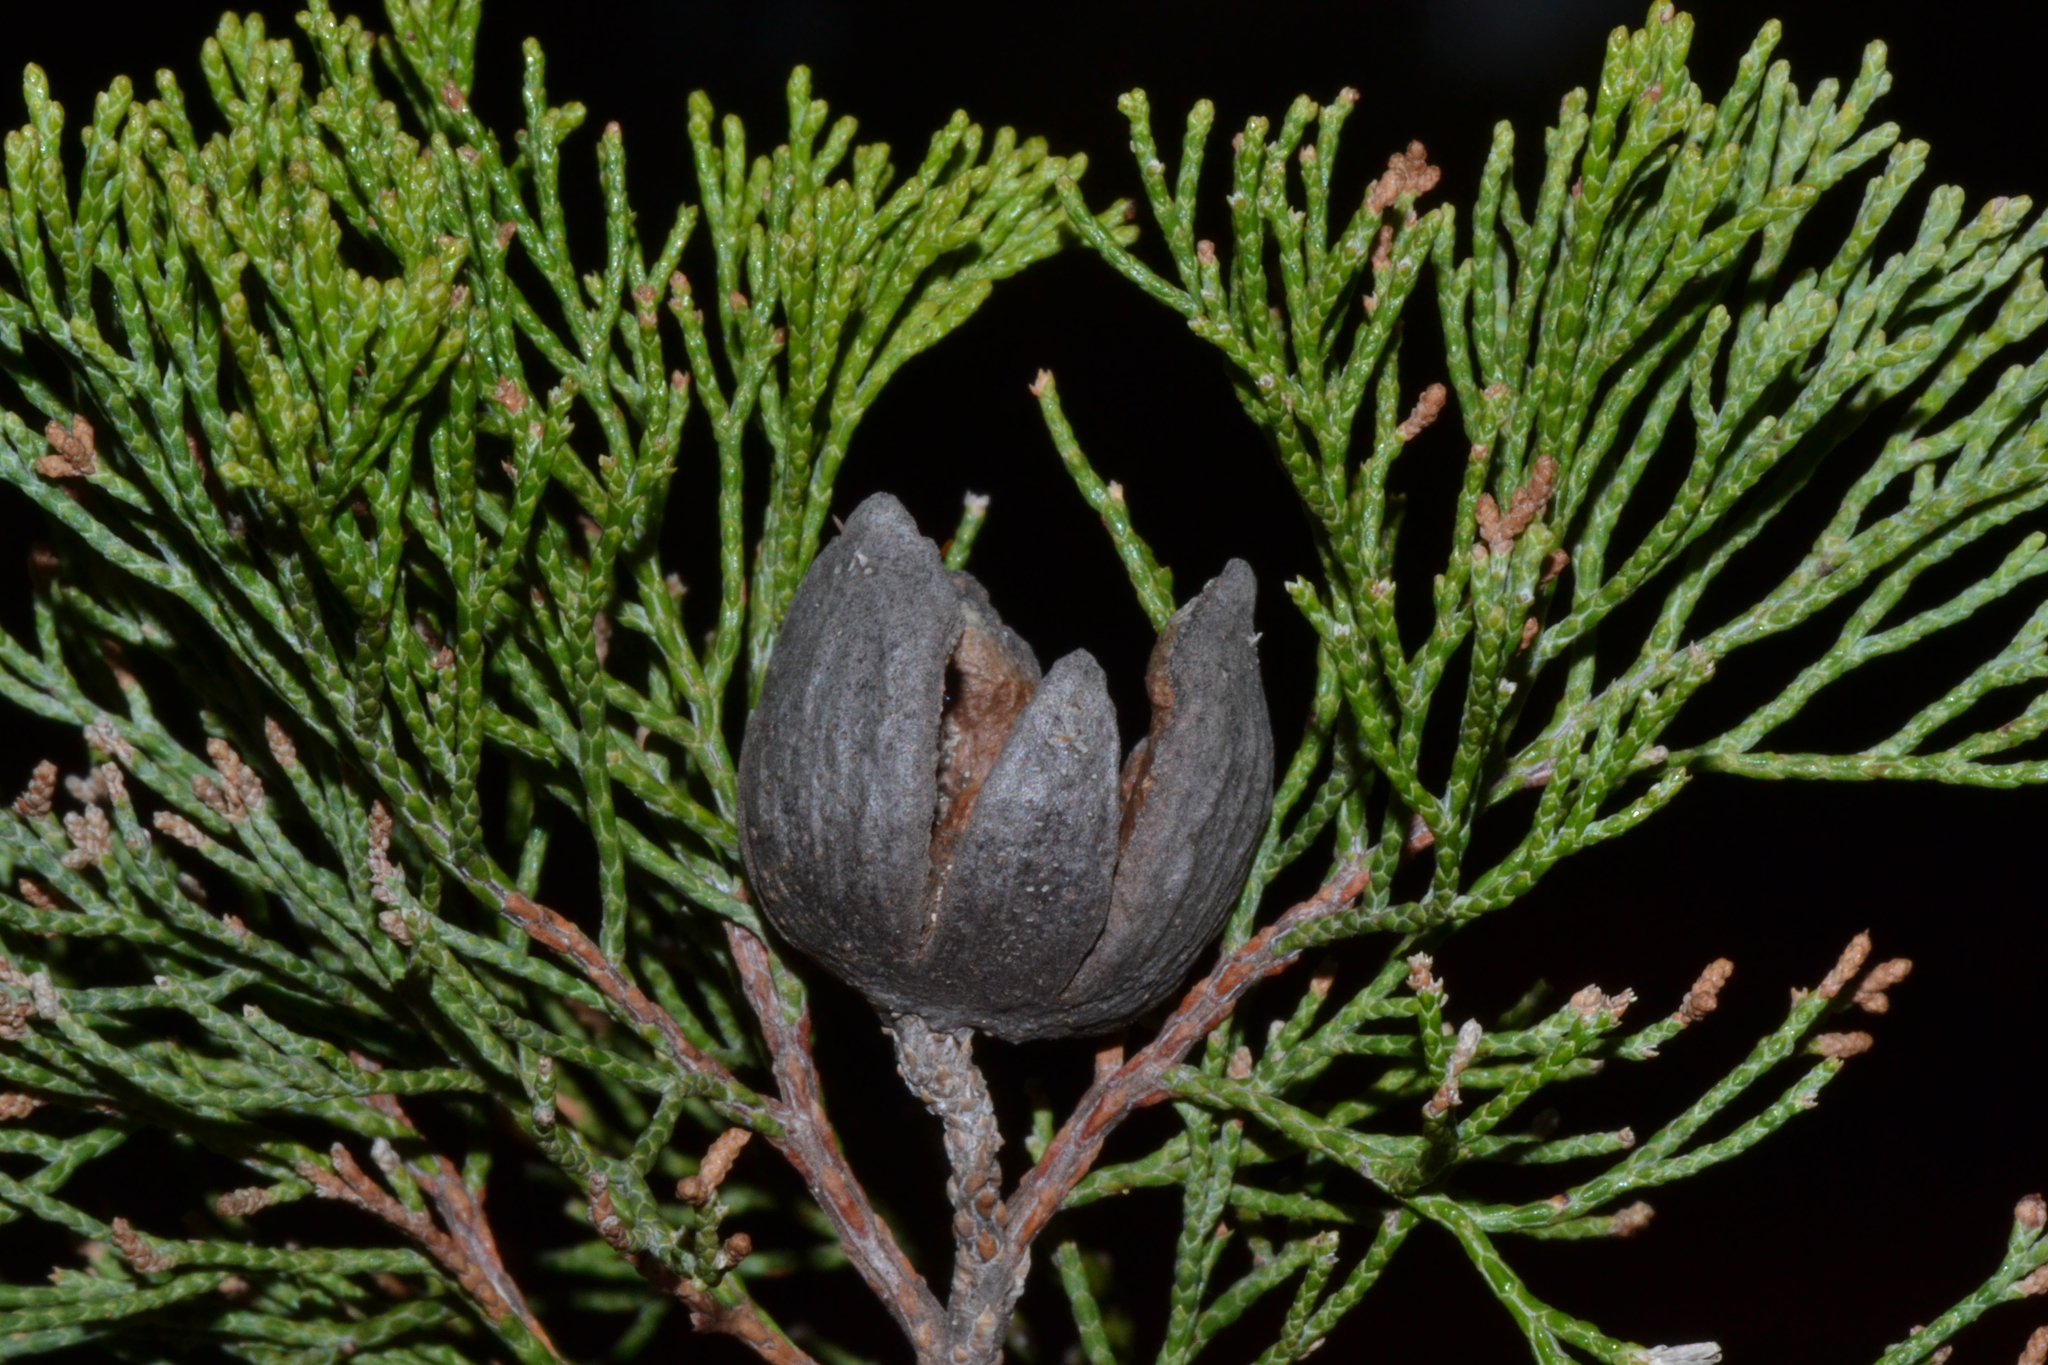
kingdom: Plantae
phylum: Tracheophyta
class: Pinopsida
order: Pinales
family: Cupressaceae
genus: Callitris
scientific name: Callitris columellaris
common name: White cypress-pine
